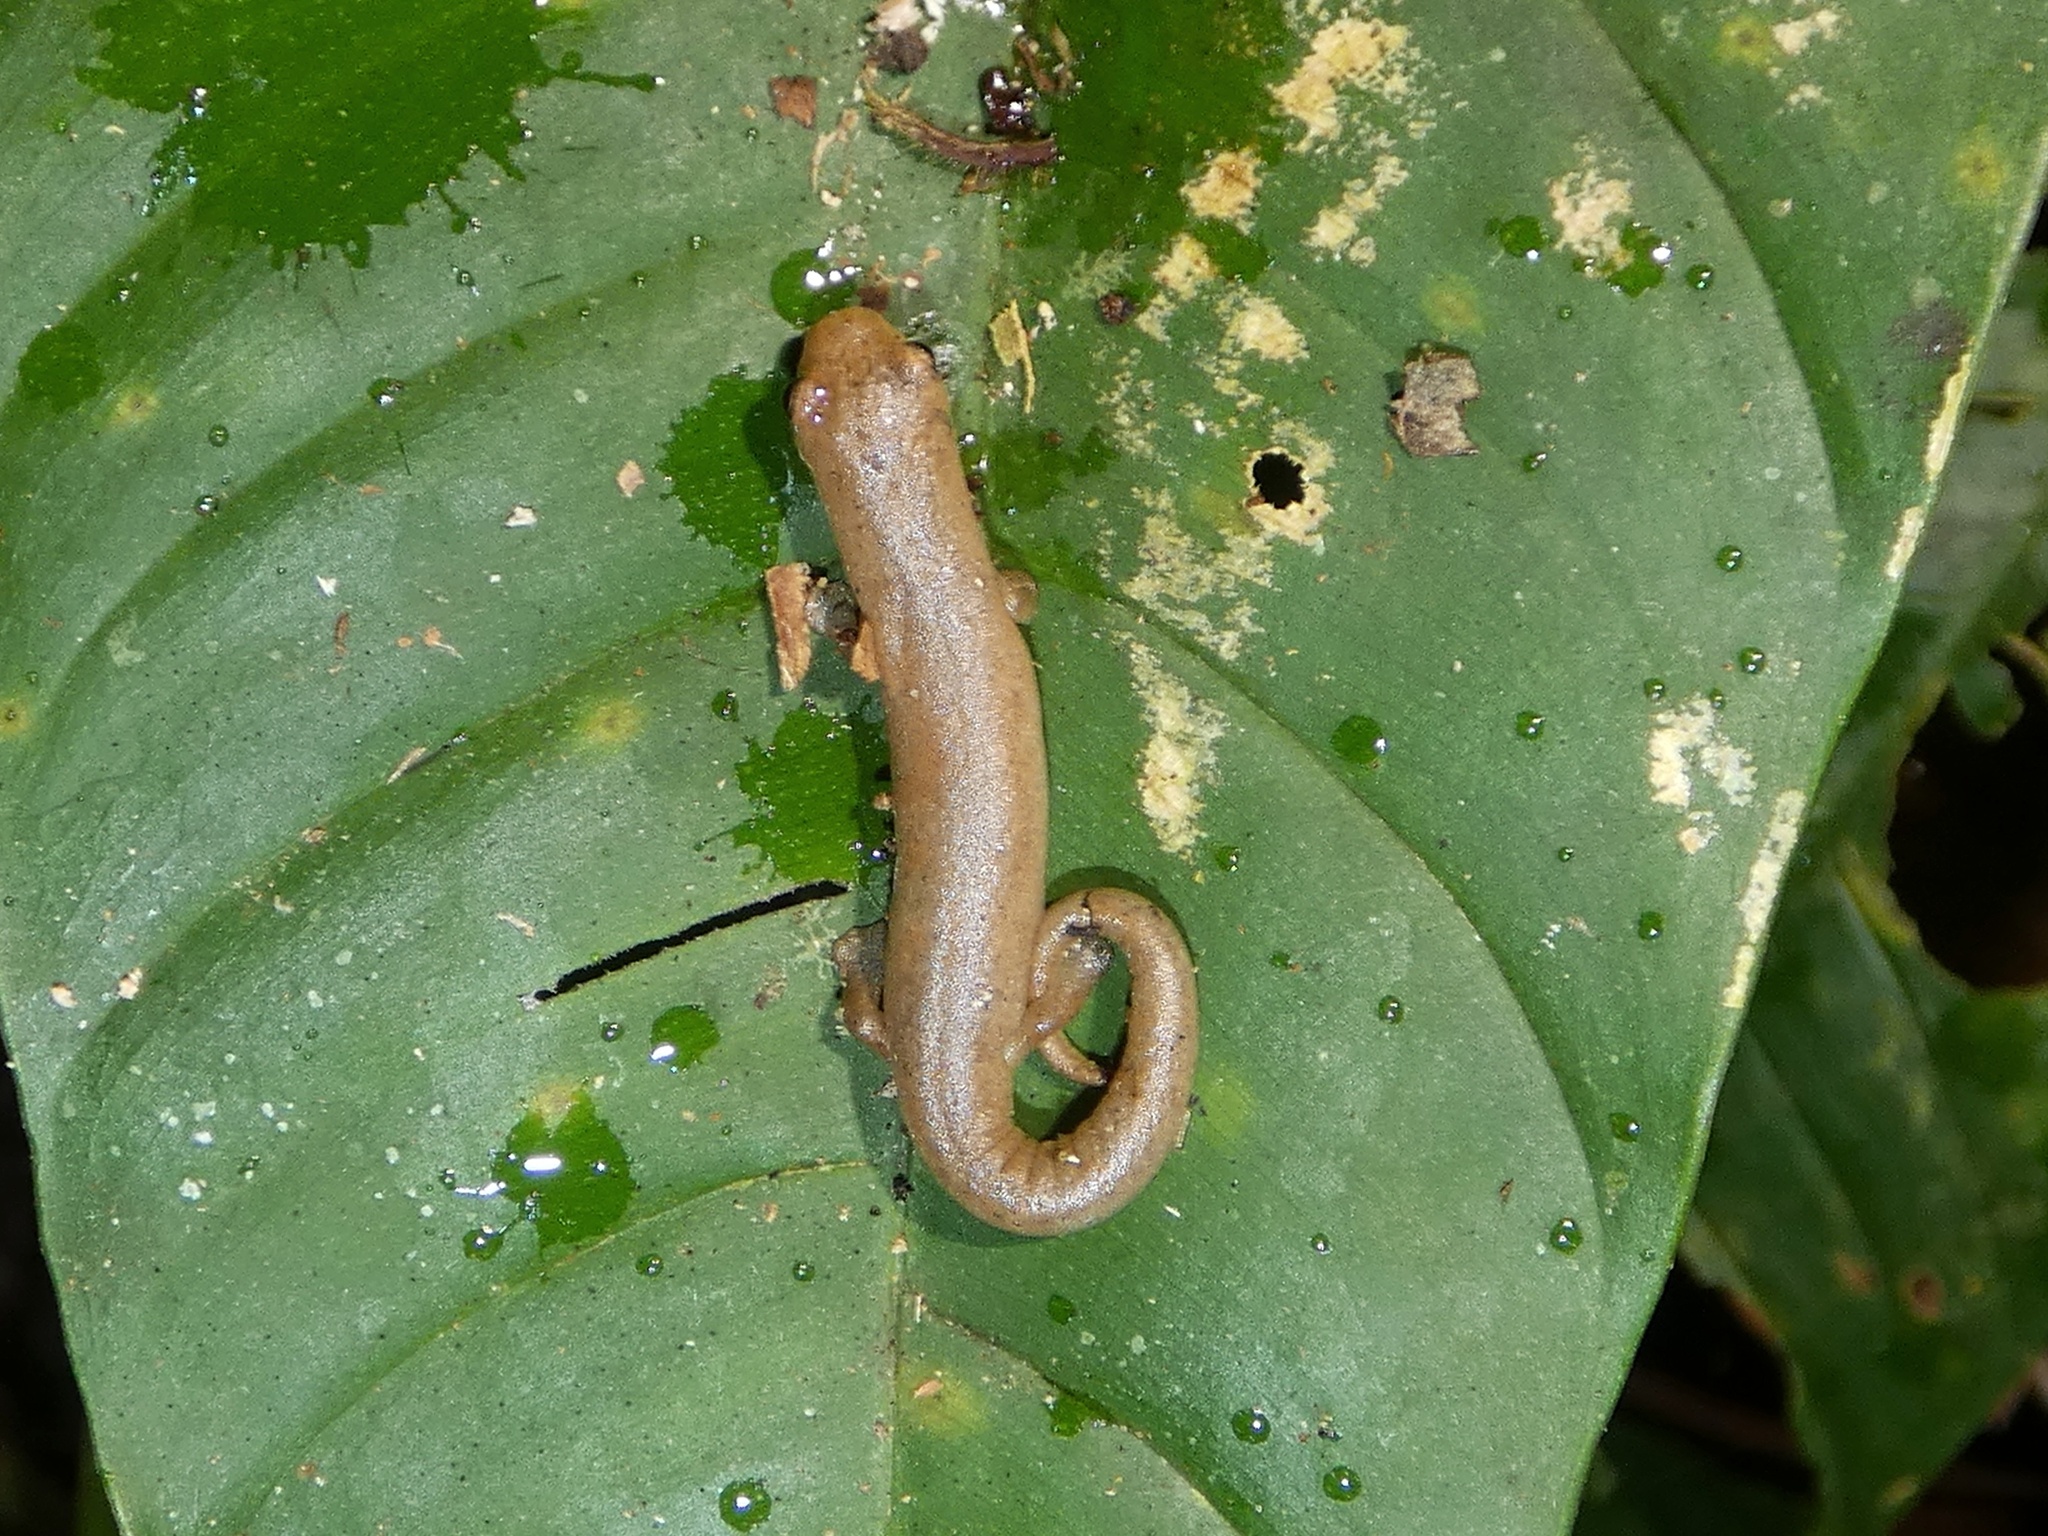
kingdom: Animalia
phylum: Chordata
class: Amphibia
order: Caudata
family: Plethodontidae
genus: Bolitoglossa
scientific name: Bolitoglossa cuna
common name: Camp sasardi salamander
